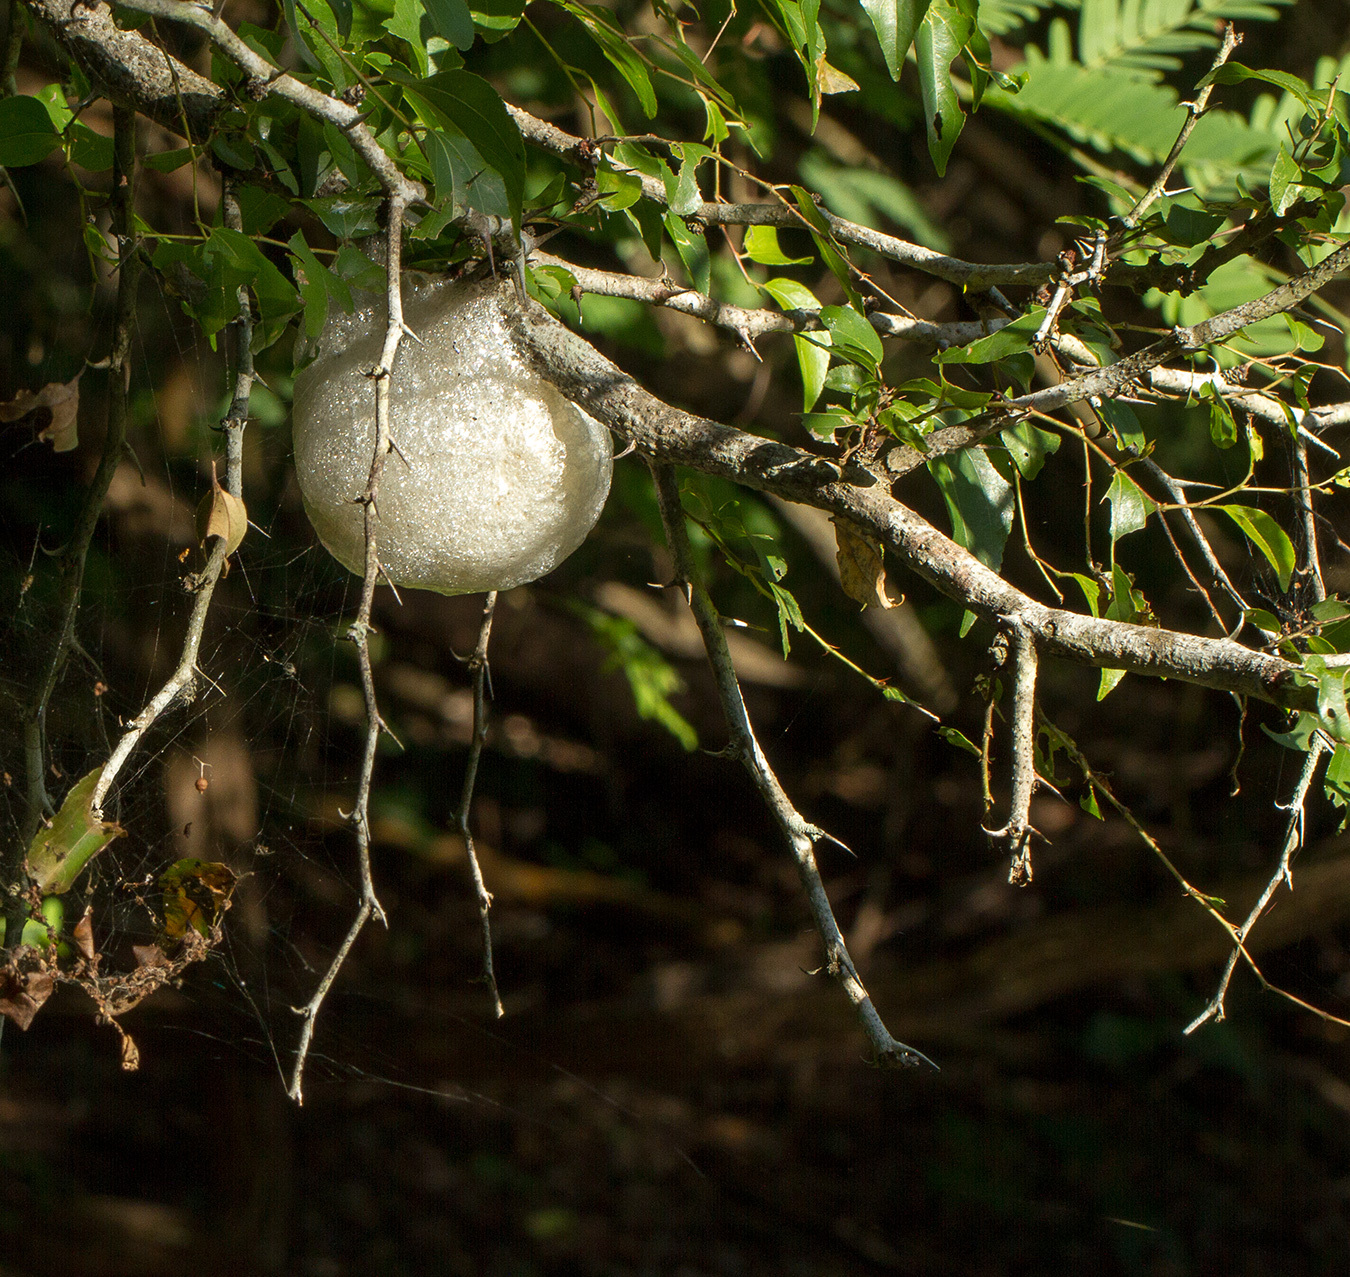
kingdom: Animalia
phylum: Chordata
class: Amphibia
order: Anura
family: Rhacophoridae
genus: Chiromantis
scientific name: Chiromantis xerampelina
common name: African gray treefrog
